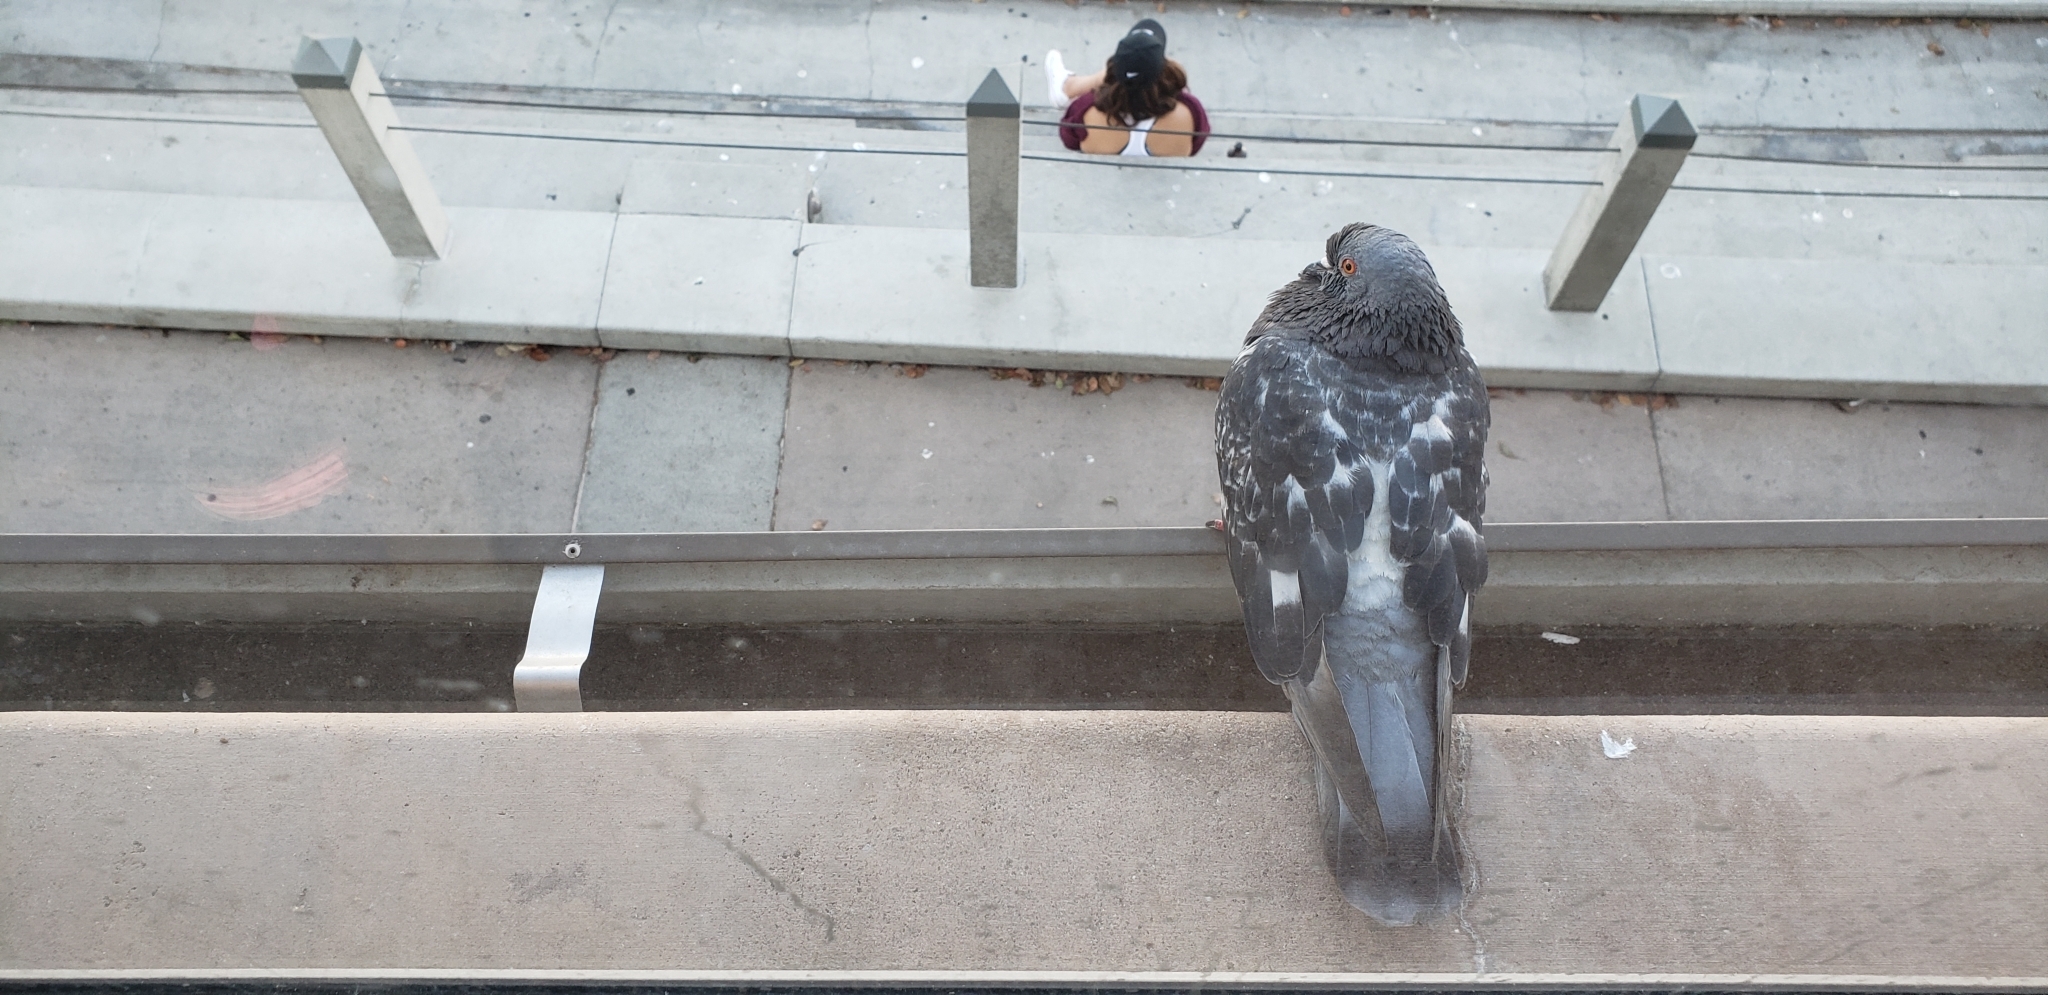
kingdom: Animalia
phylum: Chordata
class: Aves
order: Columbiformes
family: Columbidae
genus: Columba
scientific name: Columba livia
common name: Rock pigeon
